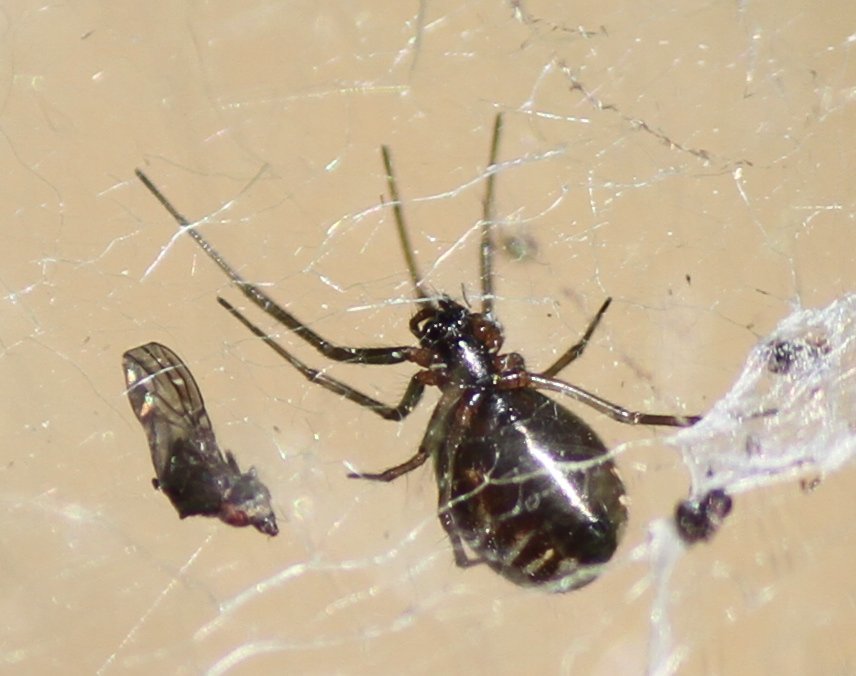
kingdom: Animalia
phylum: Arthropoda
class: Arachnida
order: Araneae
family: Linyphiidae
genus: Frontinella
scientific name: Frontinella pyramitela
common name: Bowl-and-doily spider
